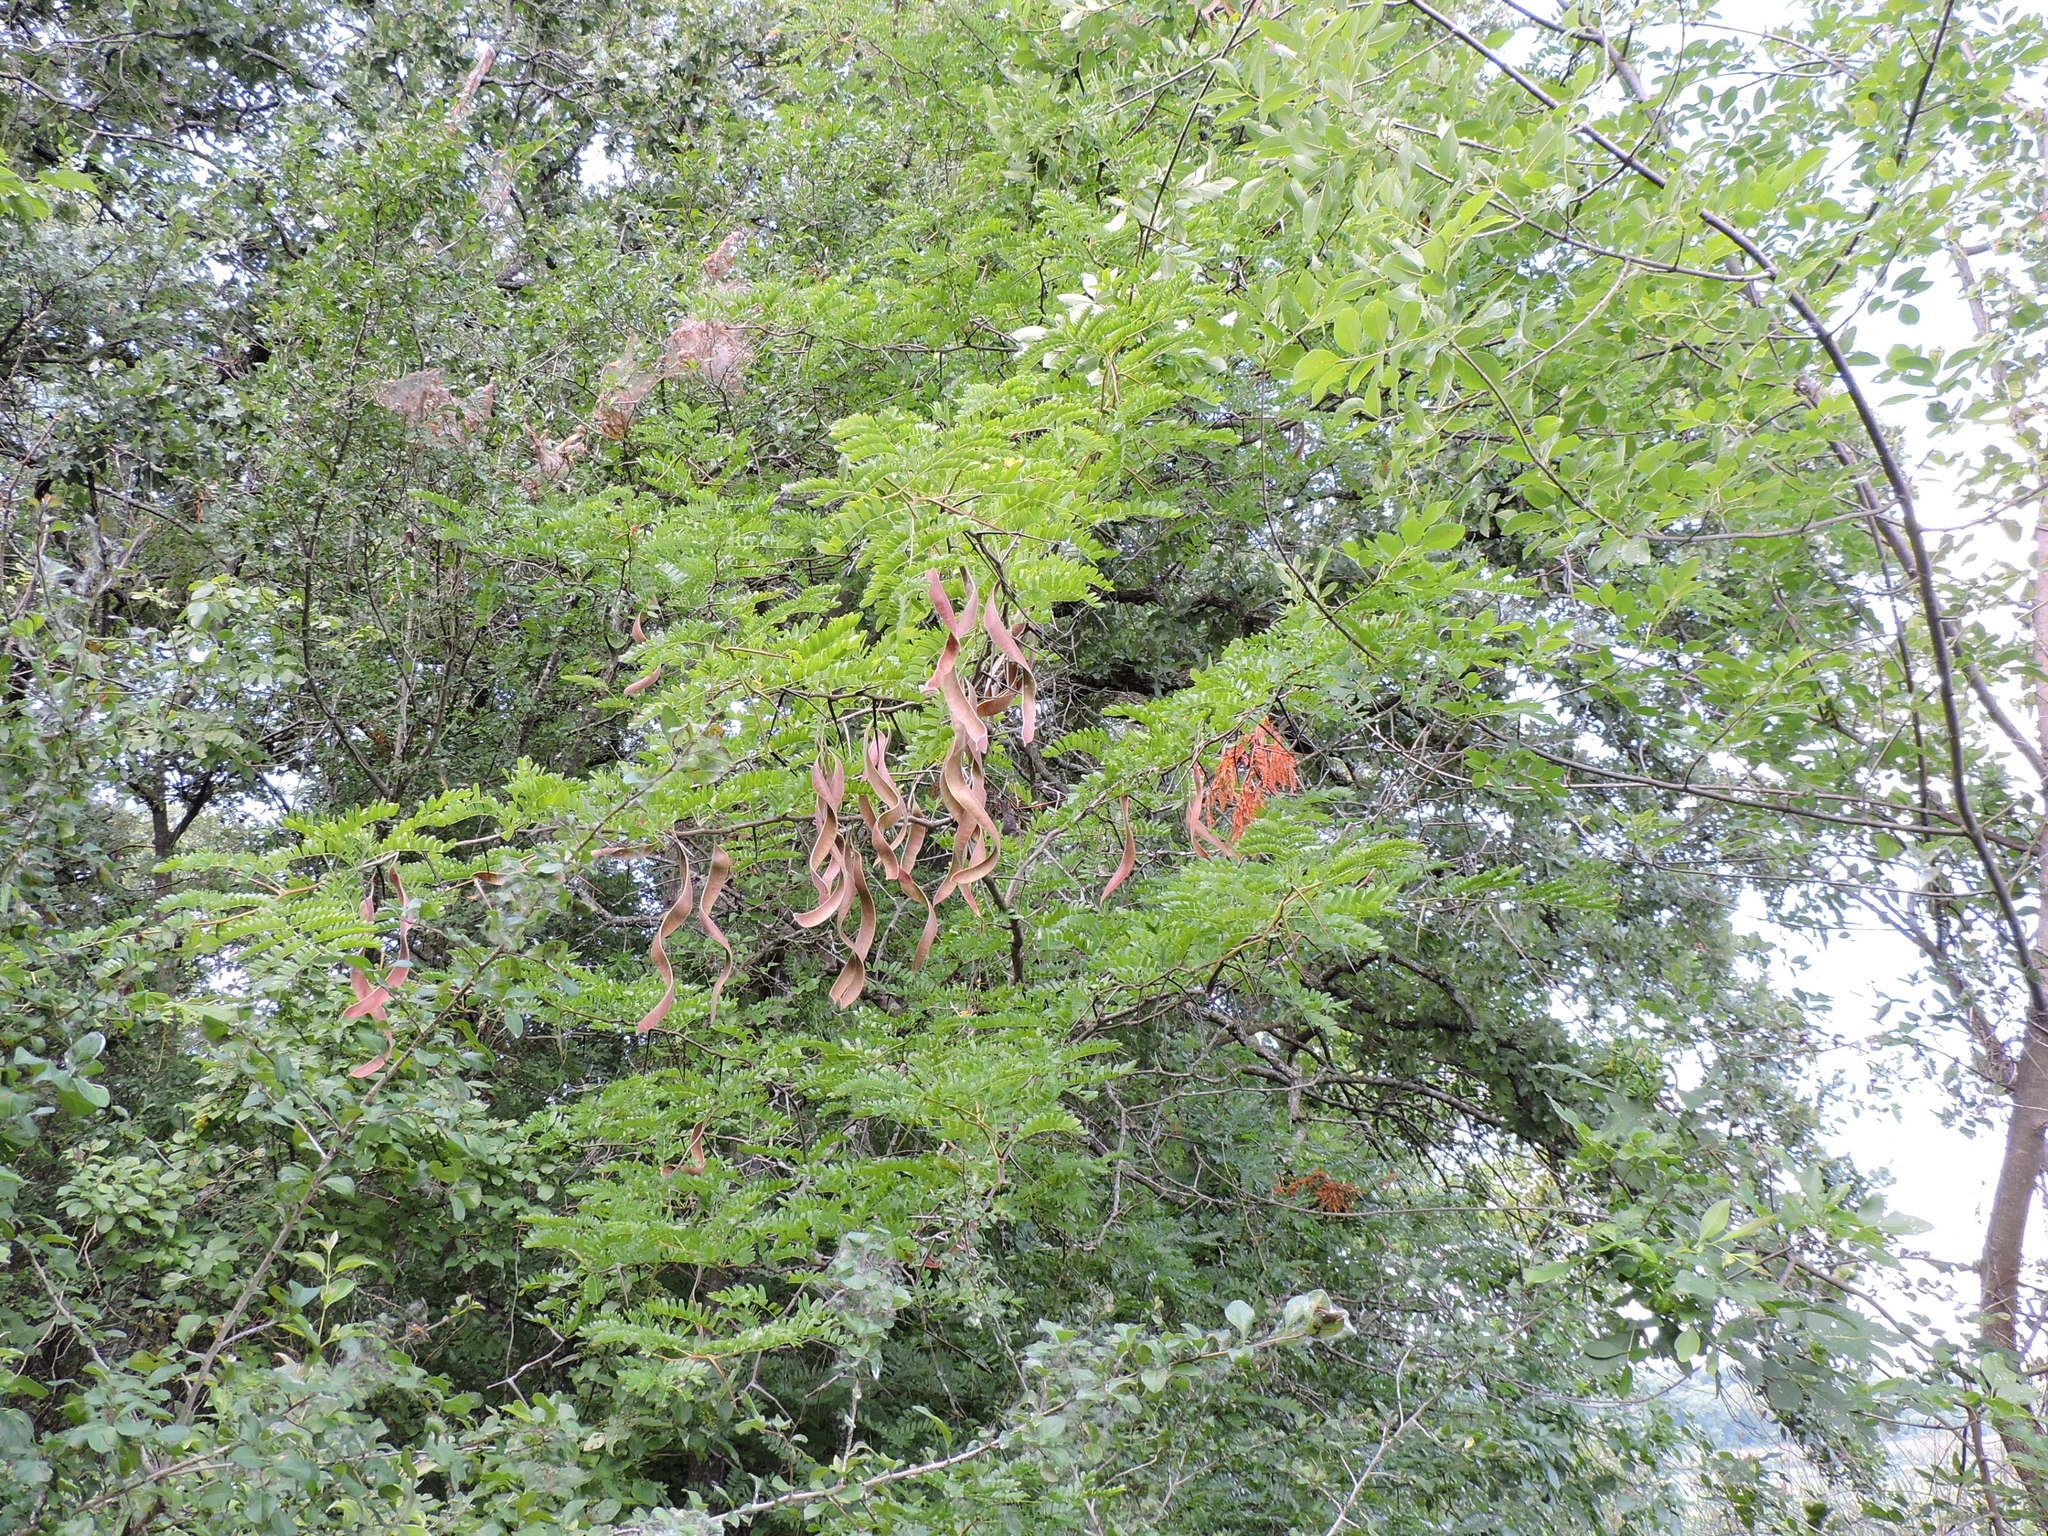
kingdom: Plantae
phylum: Tracheophyta
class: Magnoliopsida
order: Fabales
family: Fabaceae
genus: Gleditsia
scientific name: Gleditsia triacanthos
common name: Common honeylocust
